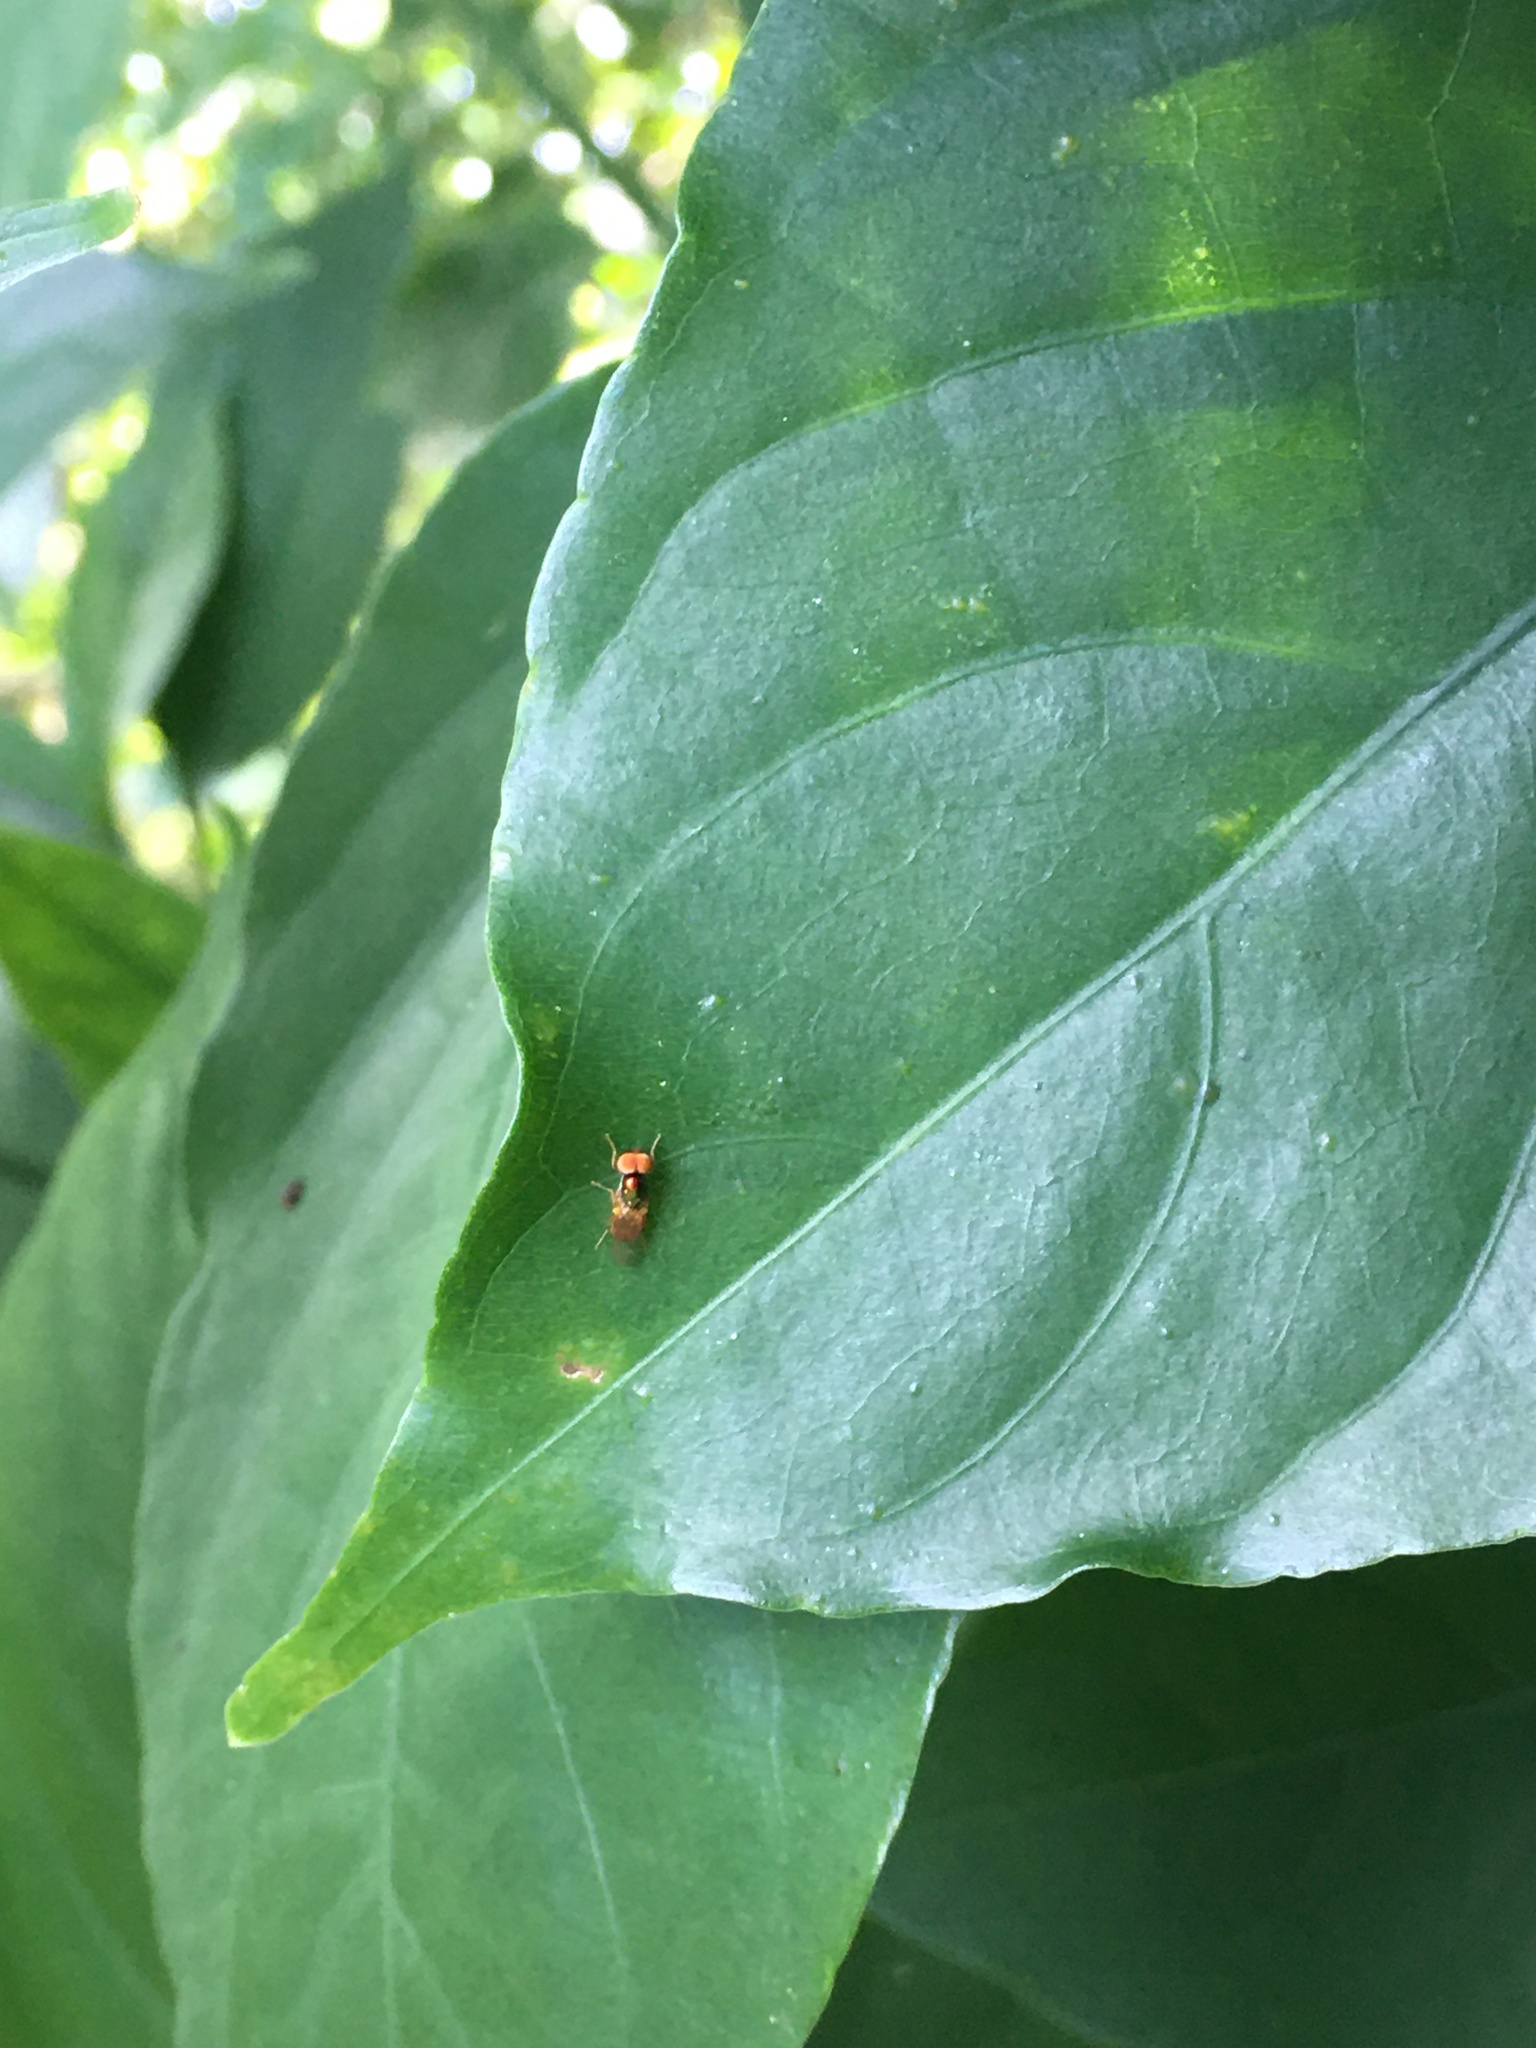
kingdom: Animalia
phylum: Arthropoda
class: Insecta
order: Diptera
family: Stratiomyidae
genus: Microchrysa
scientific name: Microchrysa flaviventris
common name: Soldier fly
